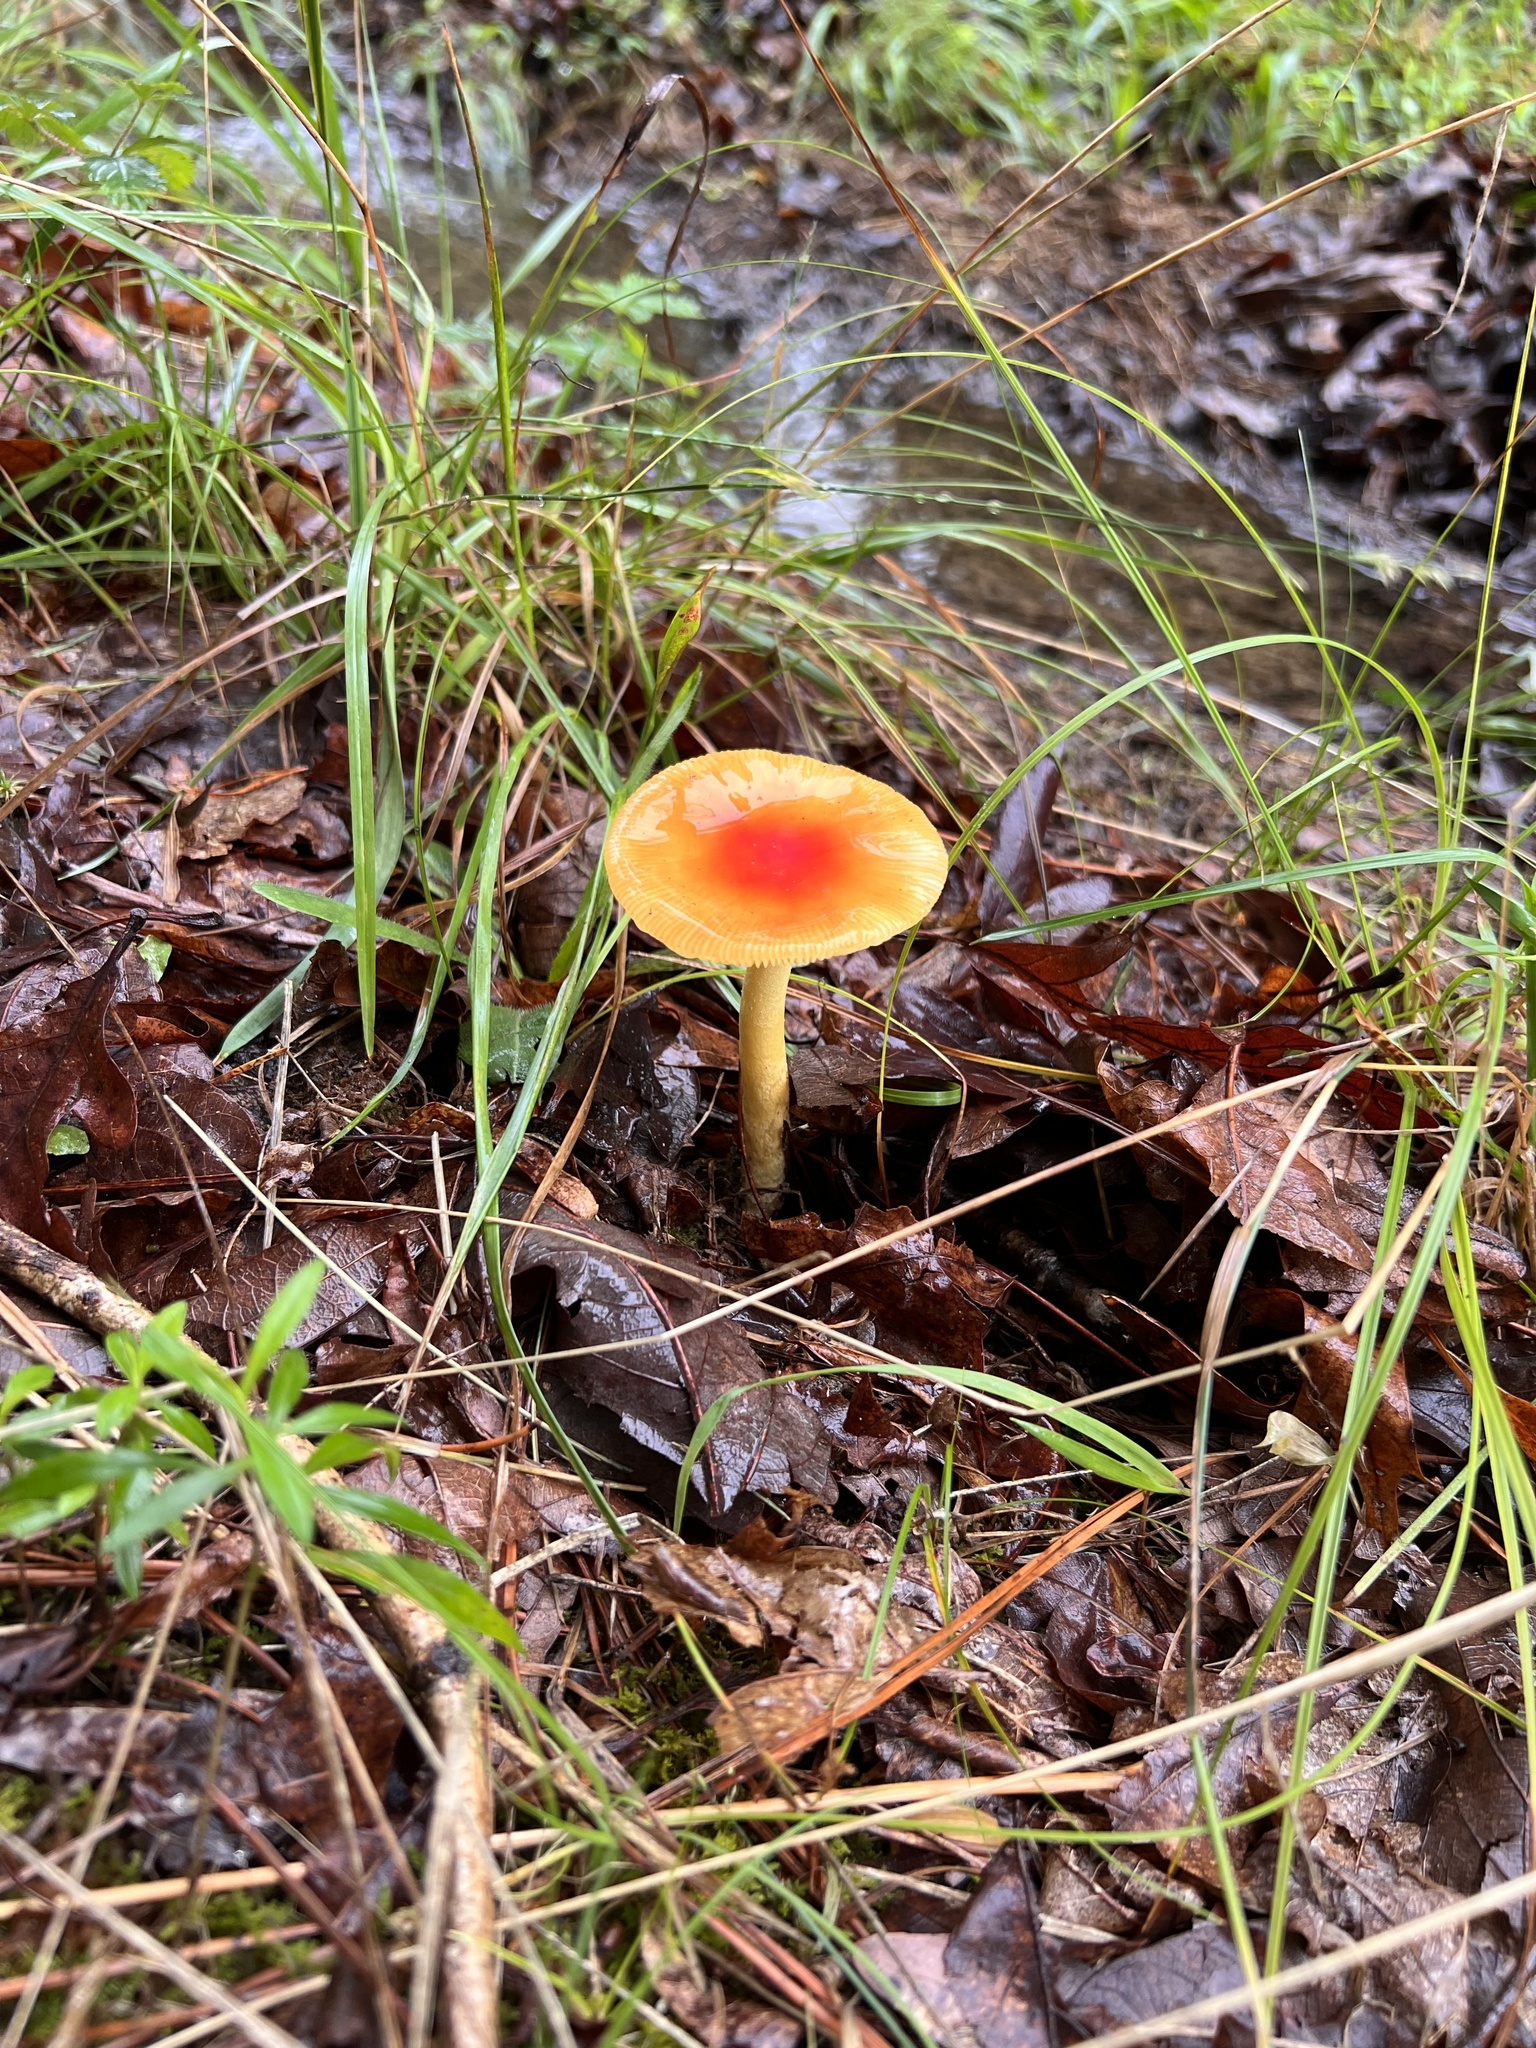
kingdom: Fungi
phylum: Basidiomycota
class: Agaricomycetes
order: Agaricales
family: Amanitaceae
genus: Amanita
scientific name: Amanita parcivolvata
